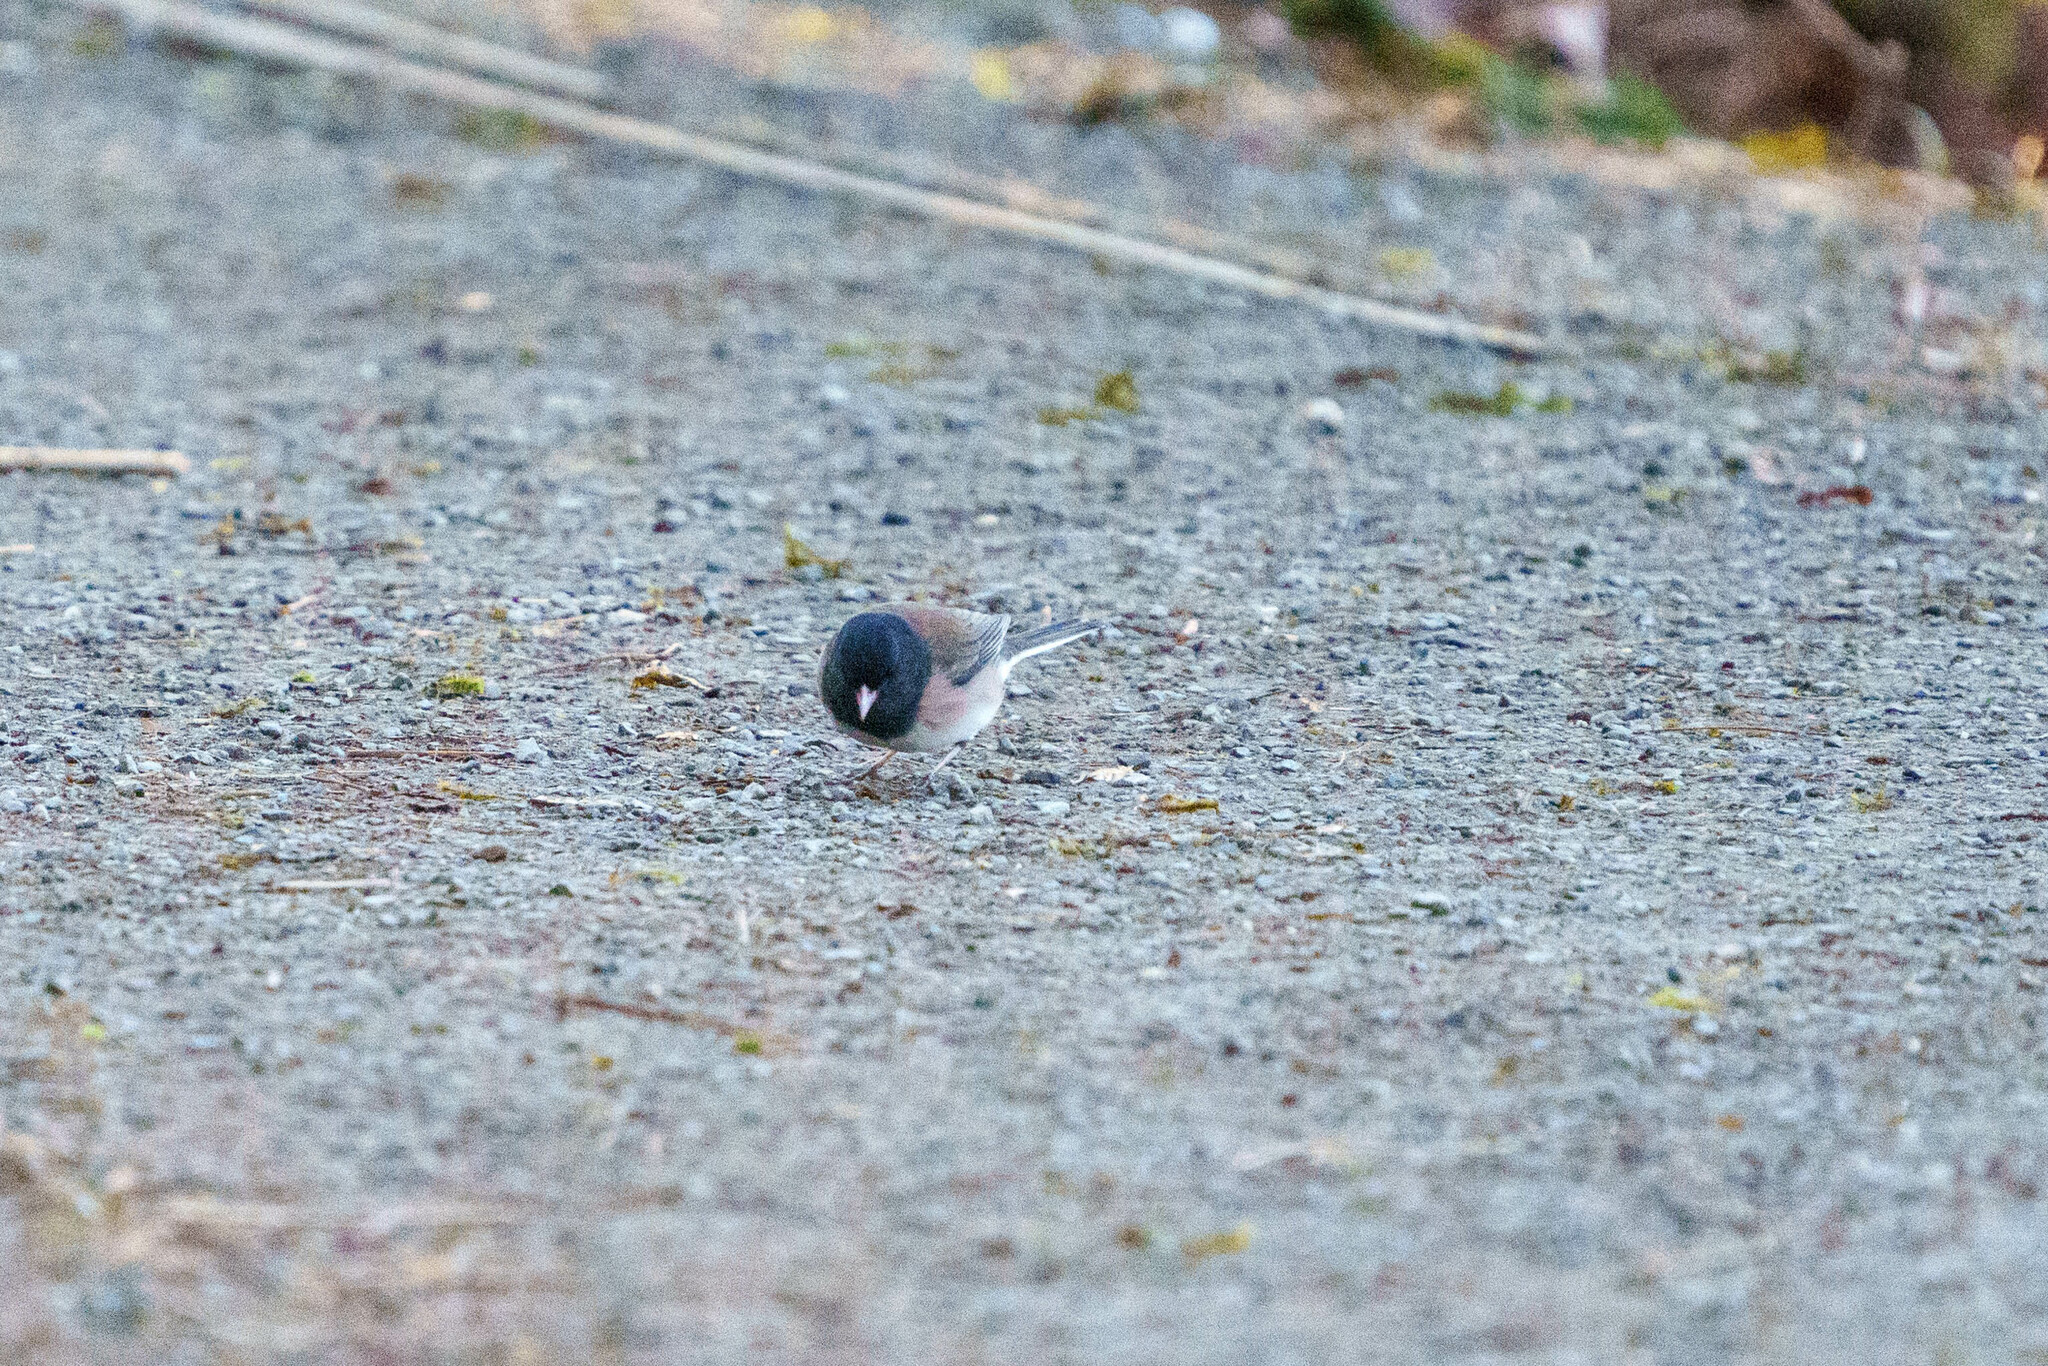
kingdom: Animalia
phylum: Chordata
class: Aves
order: Passeriformes
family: Passerellidae
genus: Junco
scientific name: Junco hyemalis
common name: Dark-eyed junco
